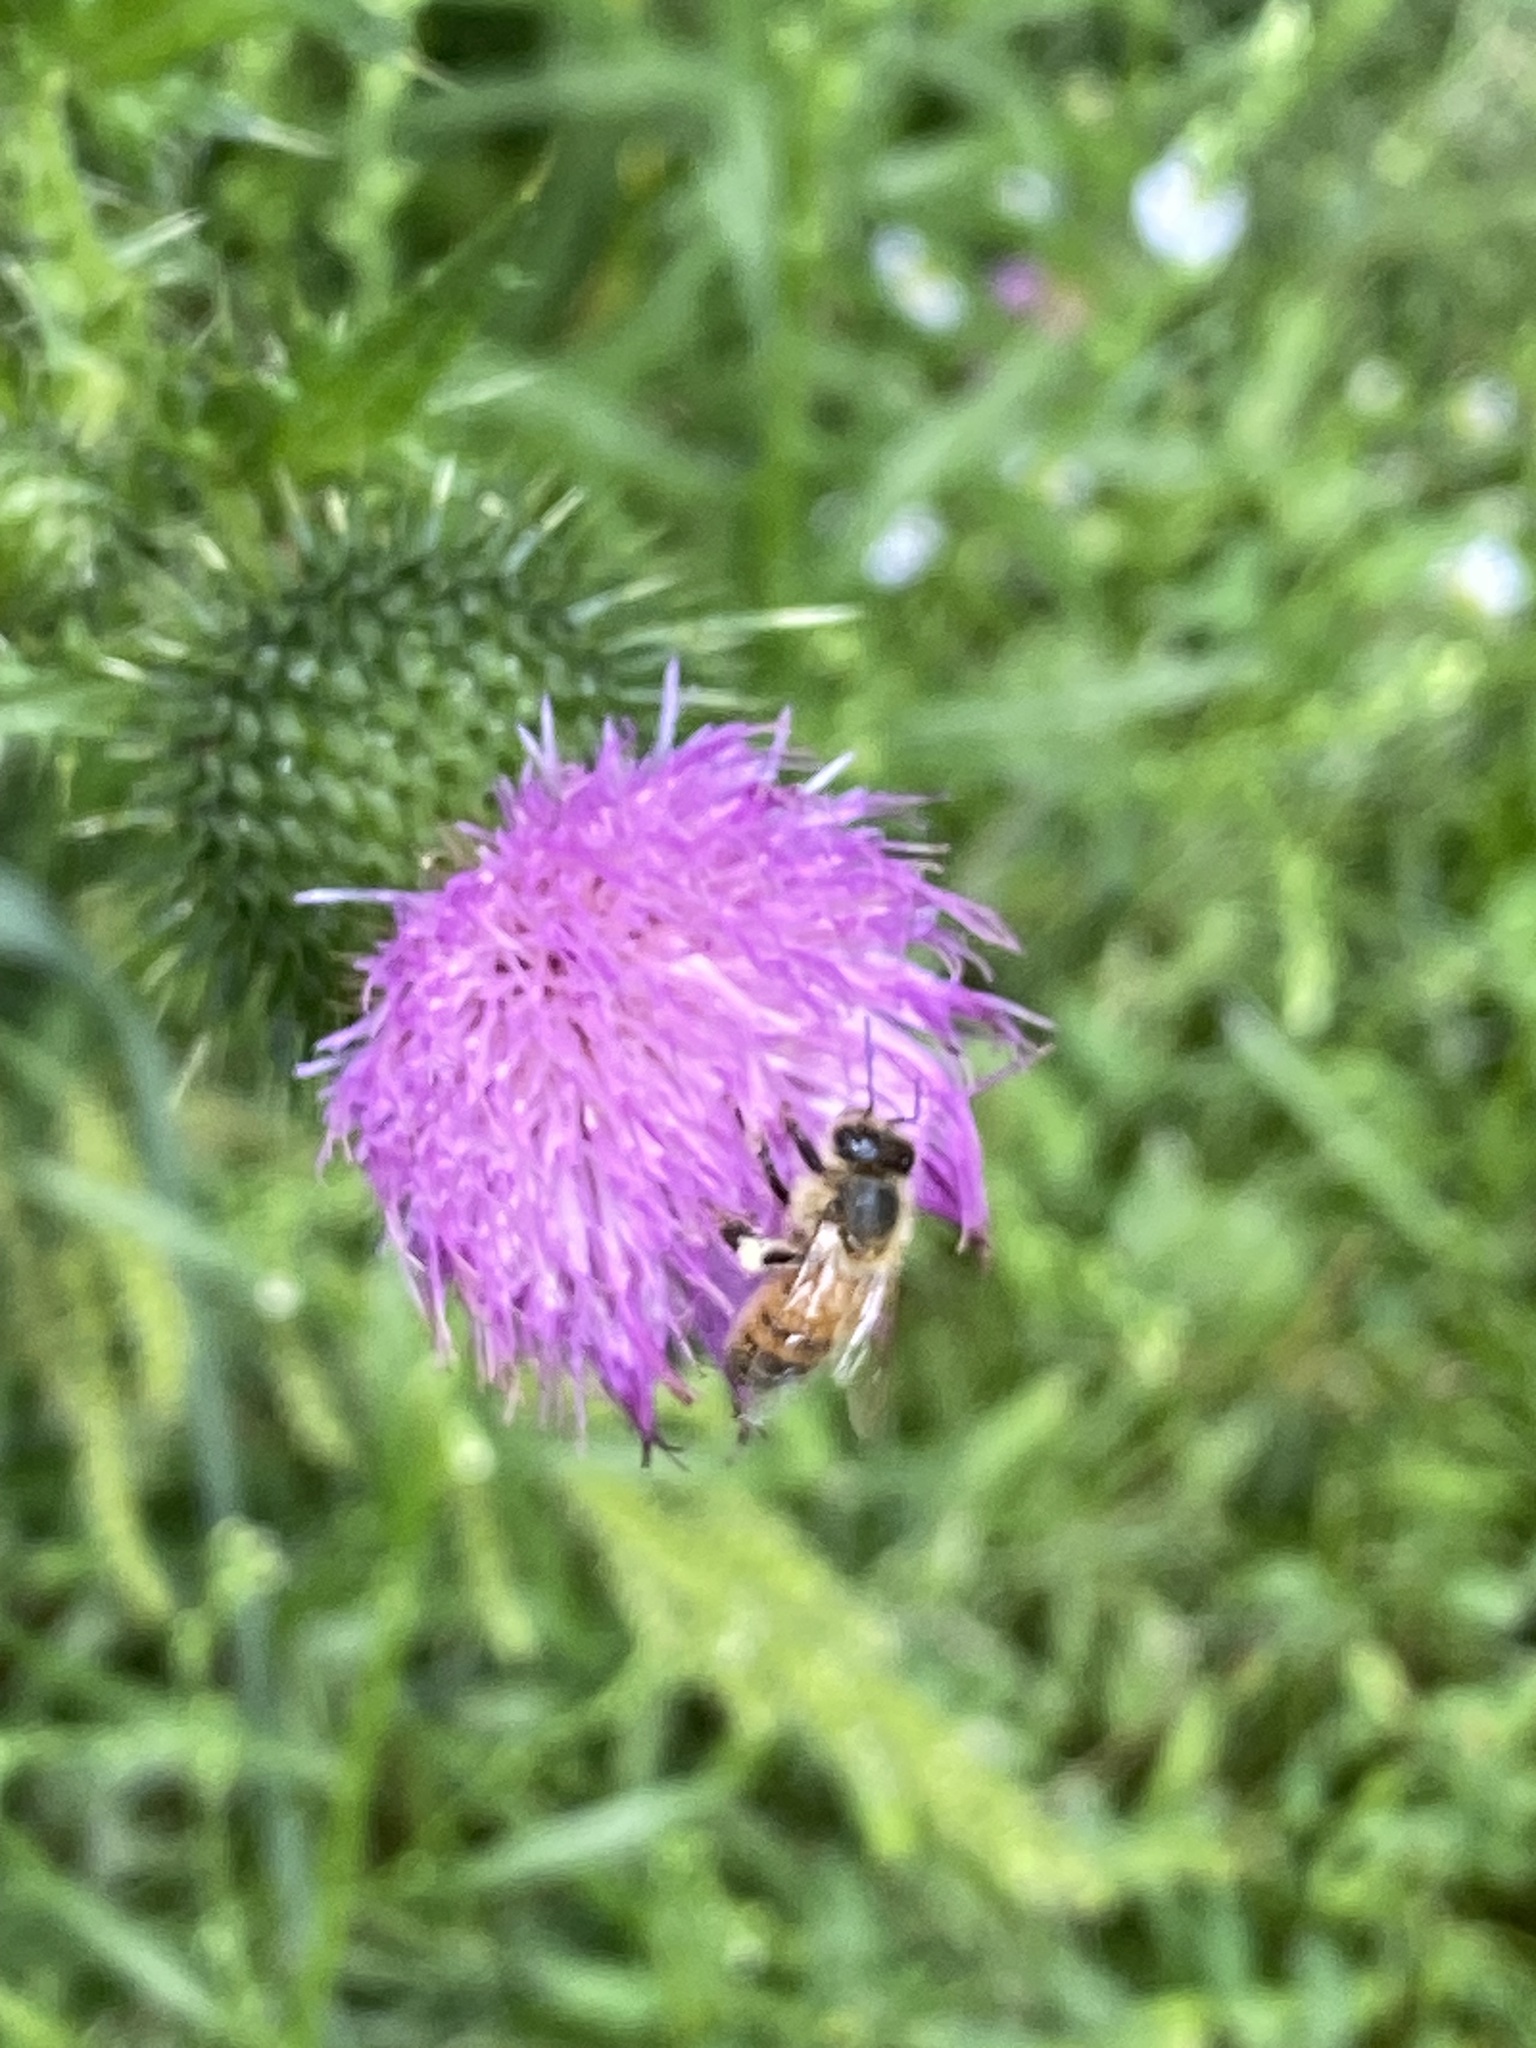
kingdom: Animalia
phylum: Arthropoda
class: Insecta
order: Hymenoptera
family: Apidae
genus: Apis
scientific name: Apis mellifera
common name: Honey bee
